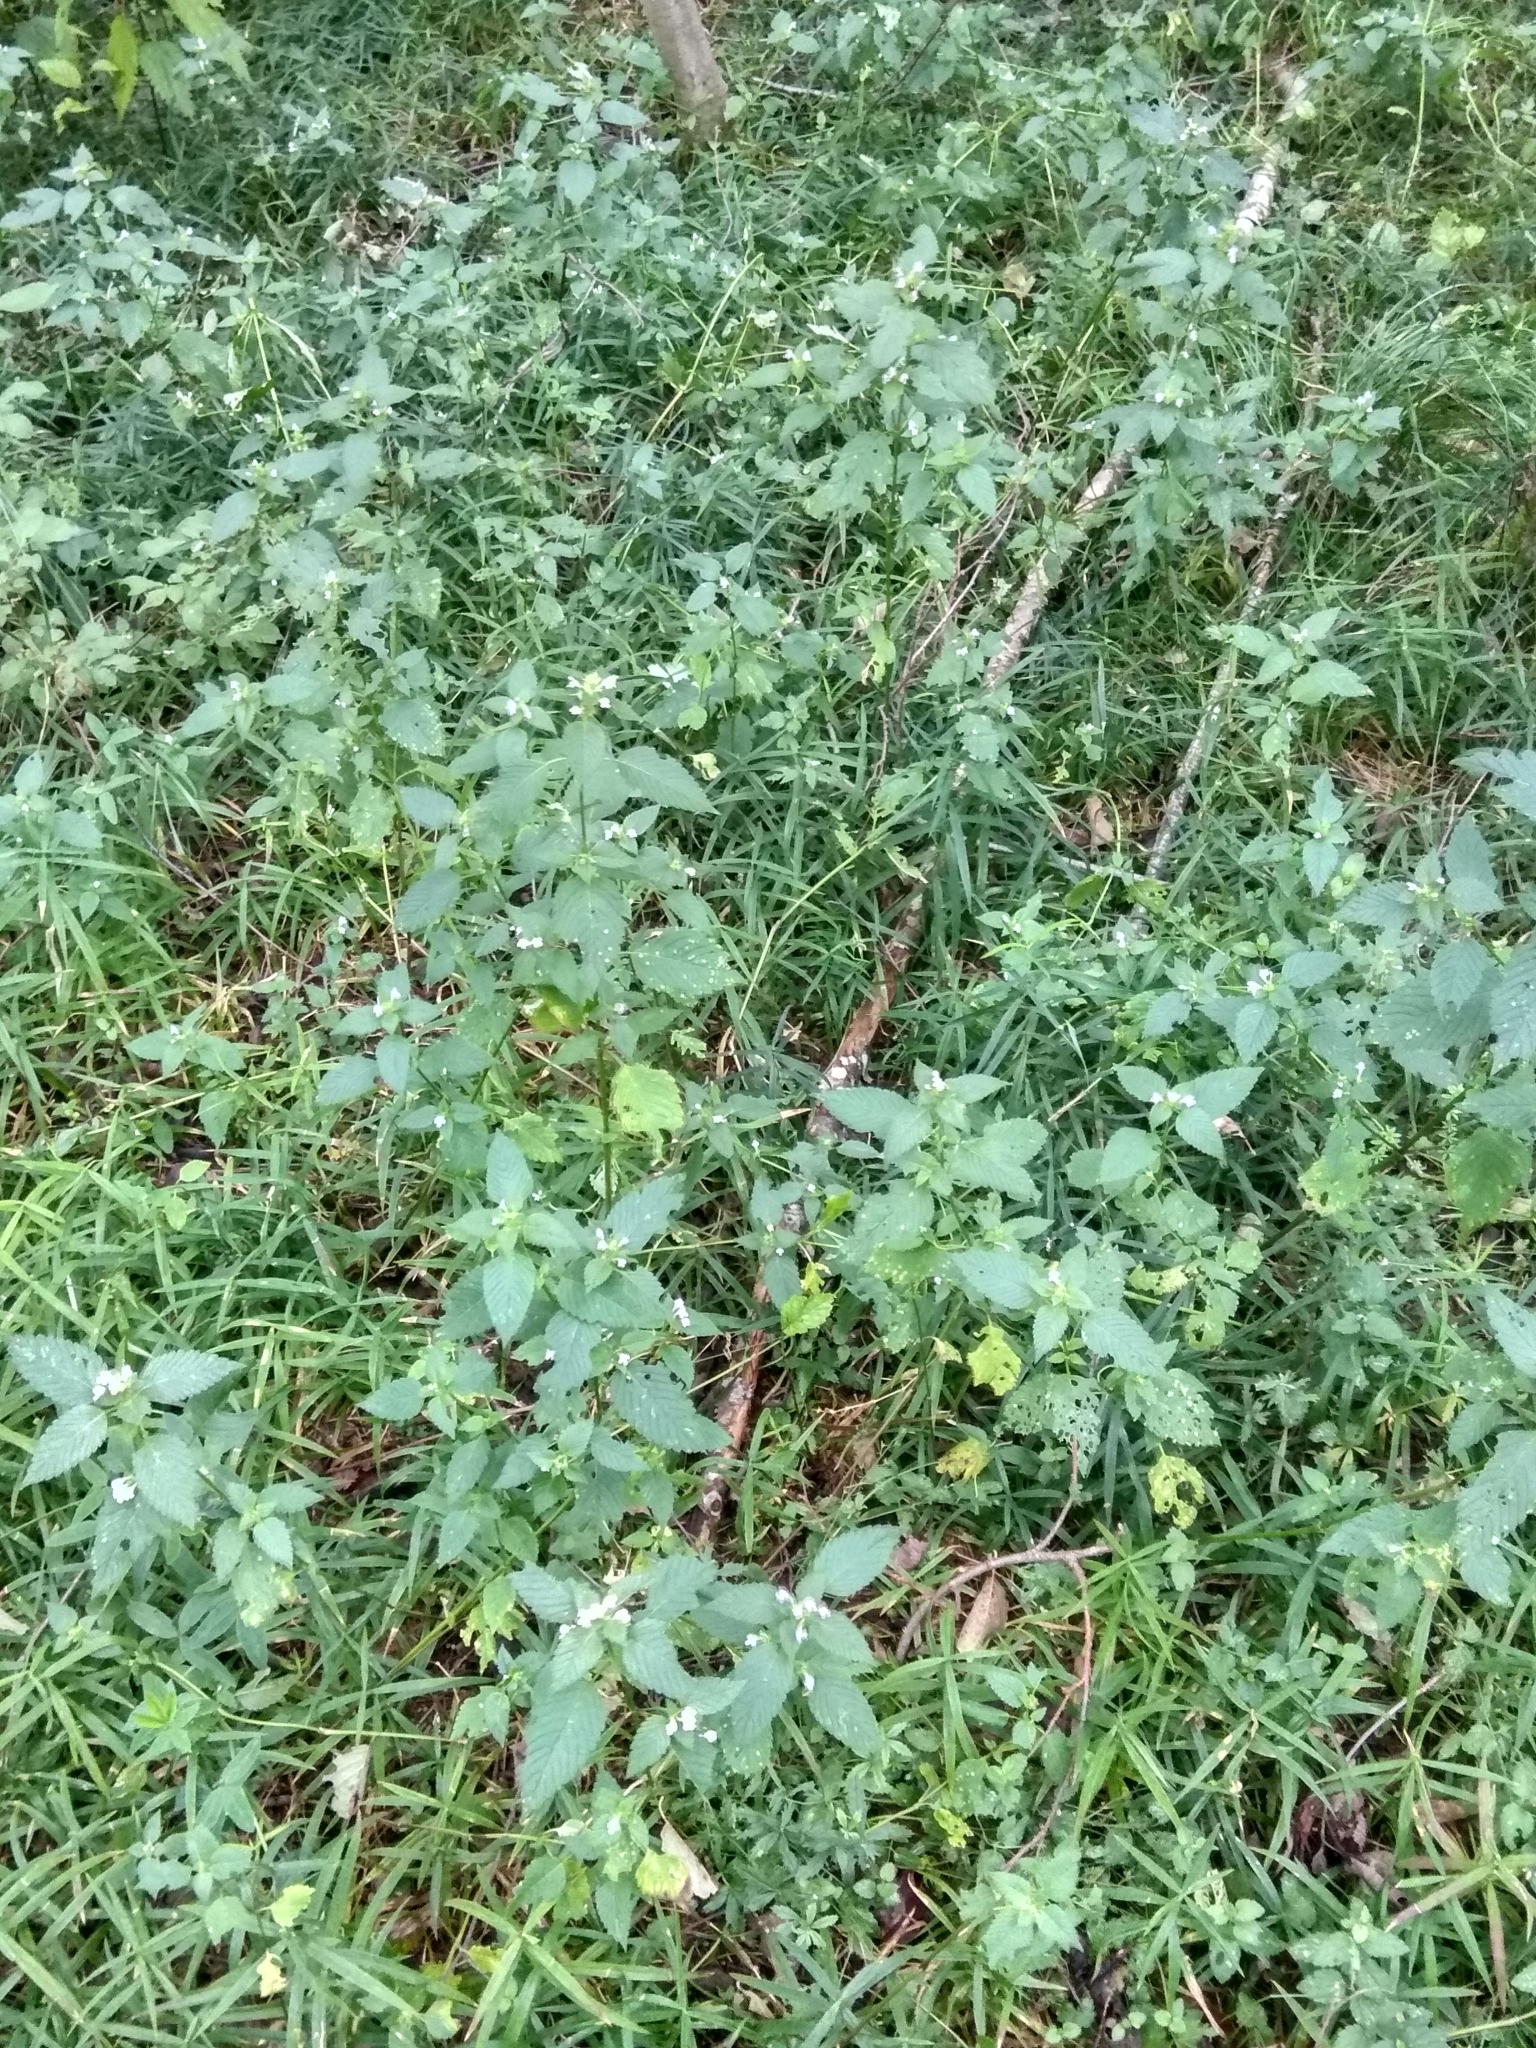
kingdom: Plantae
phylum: Tracheophyta
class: Magnoliopsida
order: Lamiales
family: Lamiaceae
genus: Galeopsis
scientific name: Galeopsis bifida
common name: Bifid hemp-nettle
